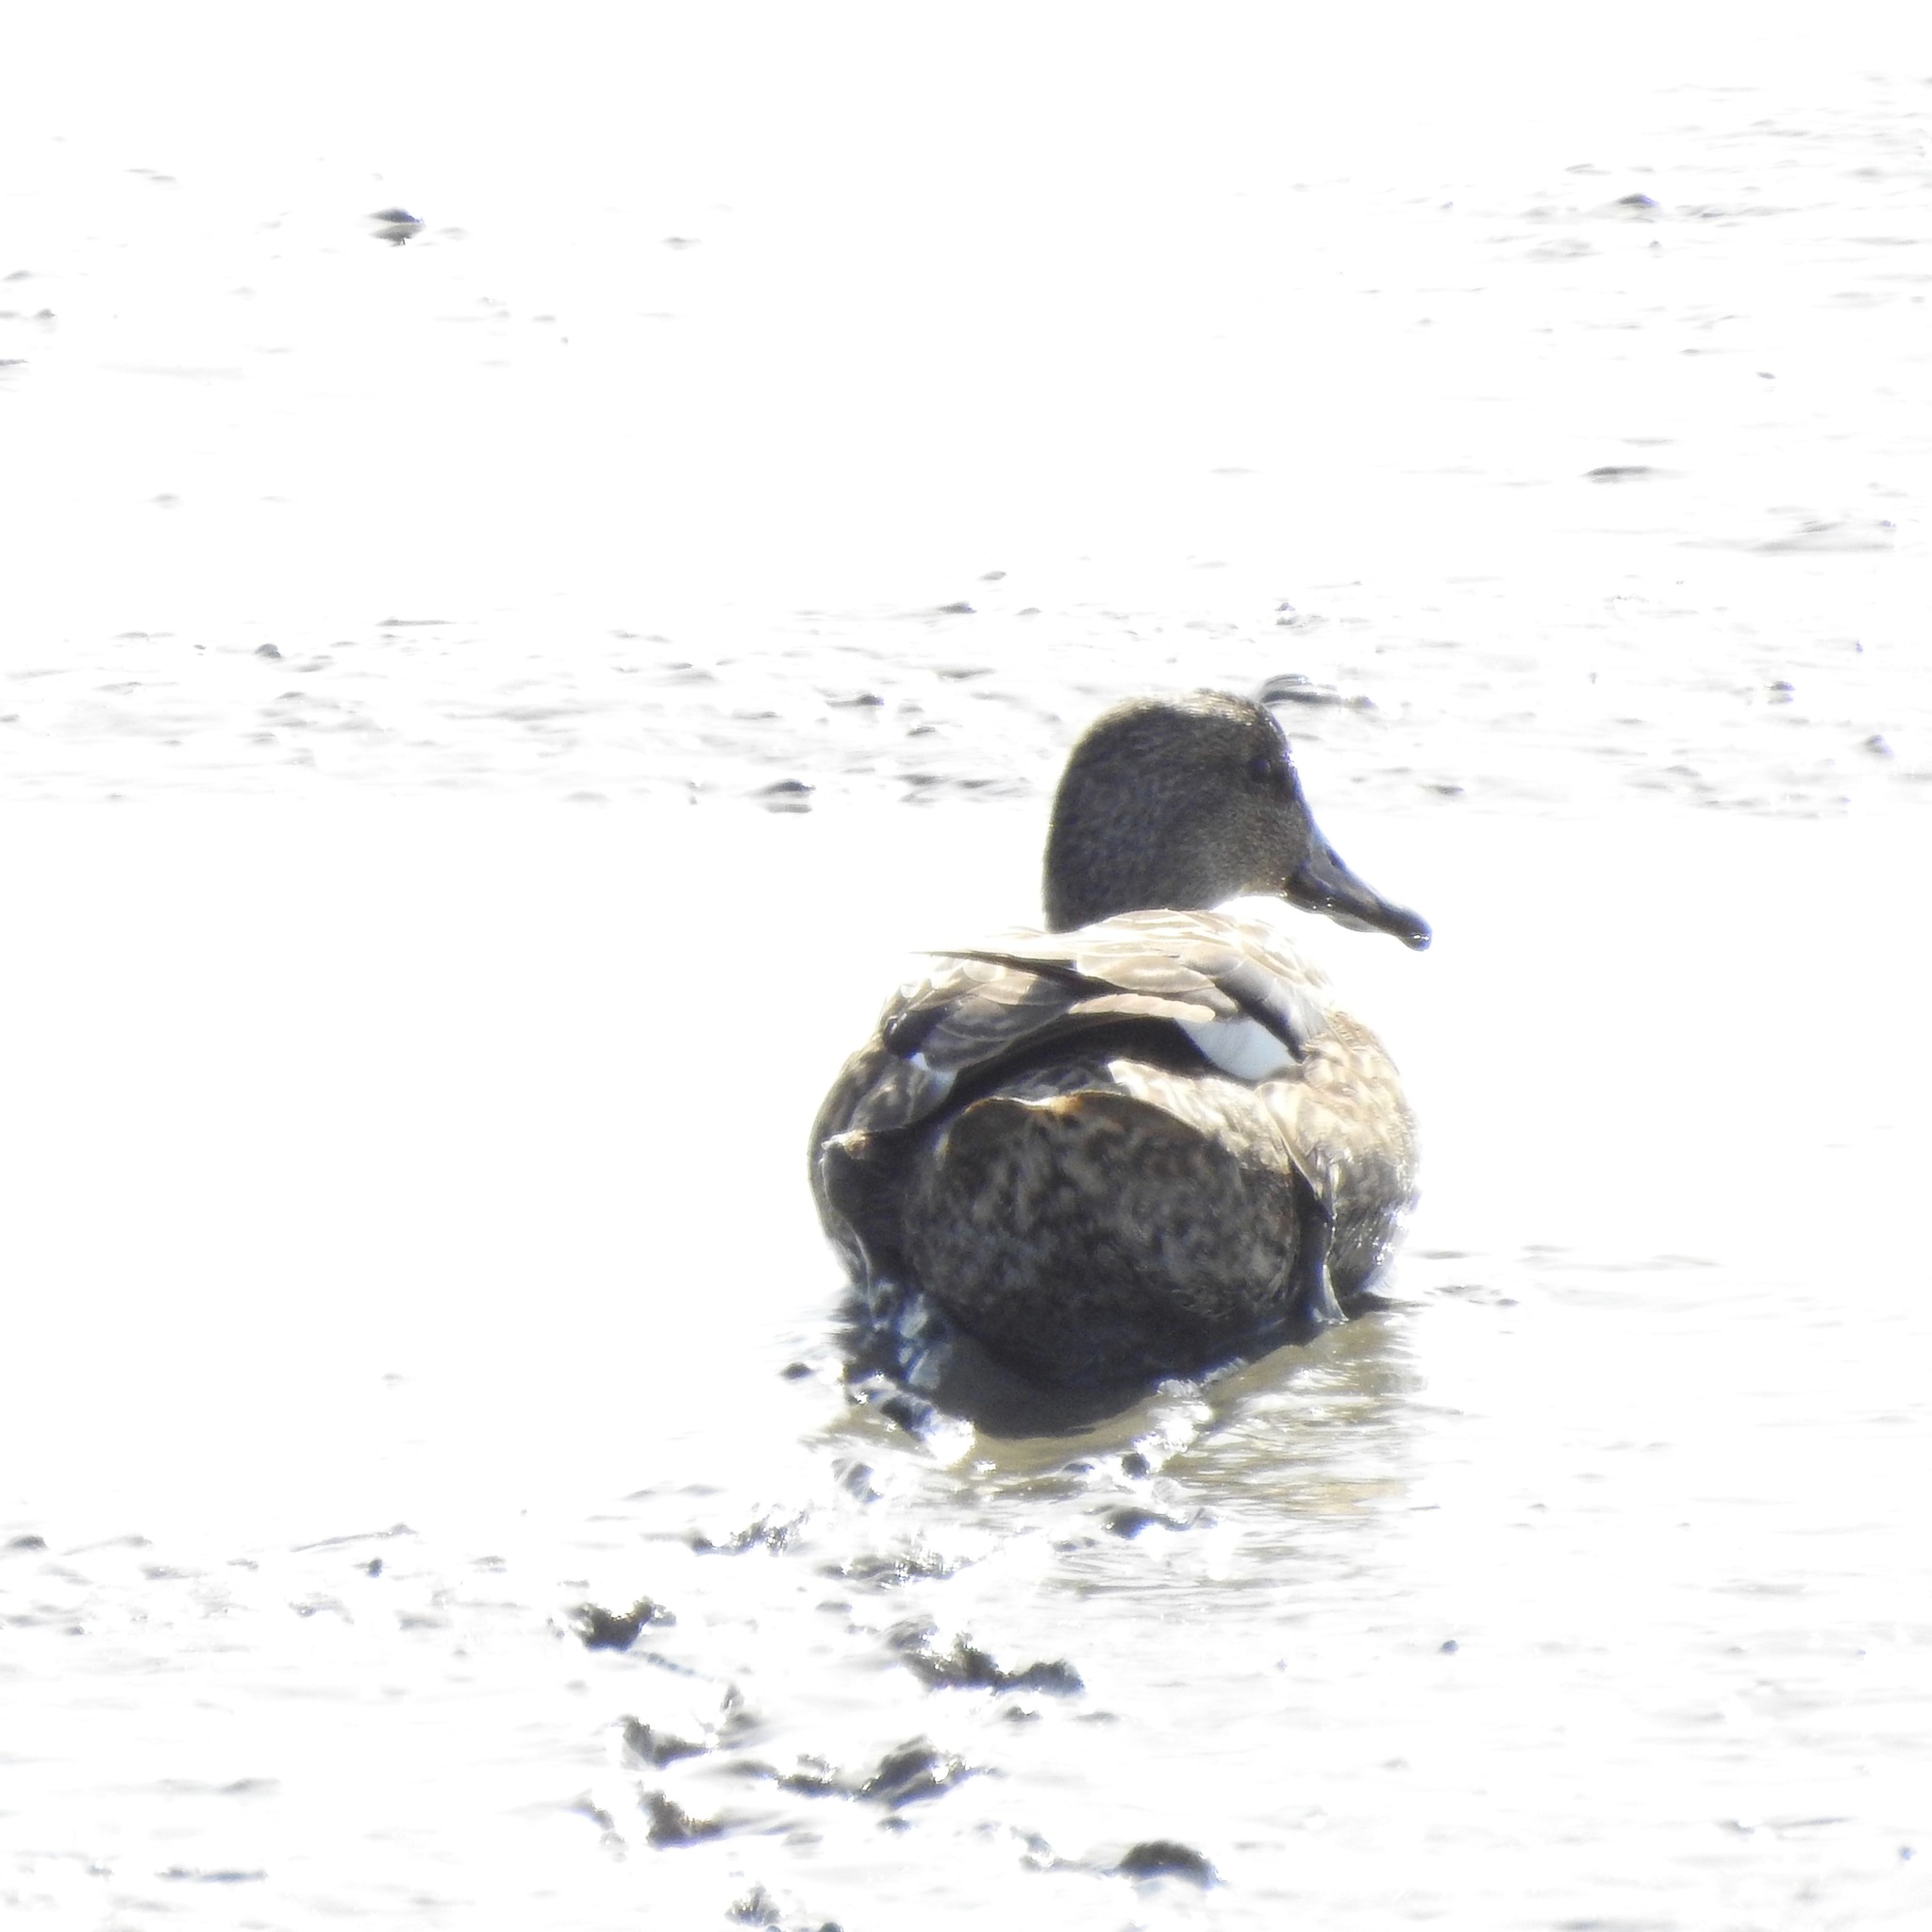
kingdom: Animalia
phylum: Chordata
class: Aves
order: Anseriformes
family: Anatidae
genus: Mareca
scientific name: Mareca strepera
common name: Gadwall
